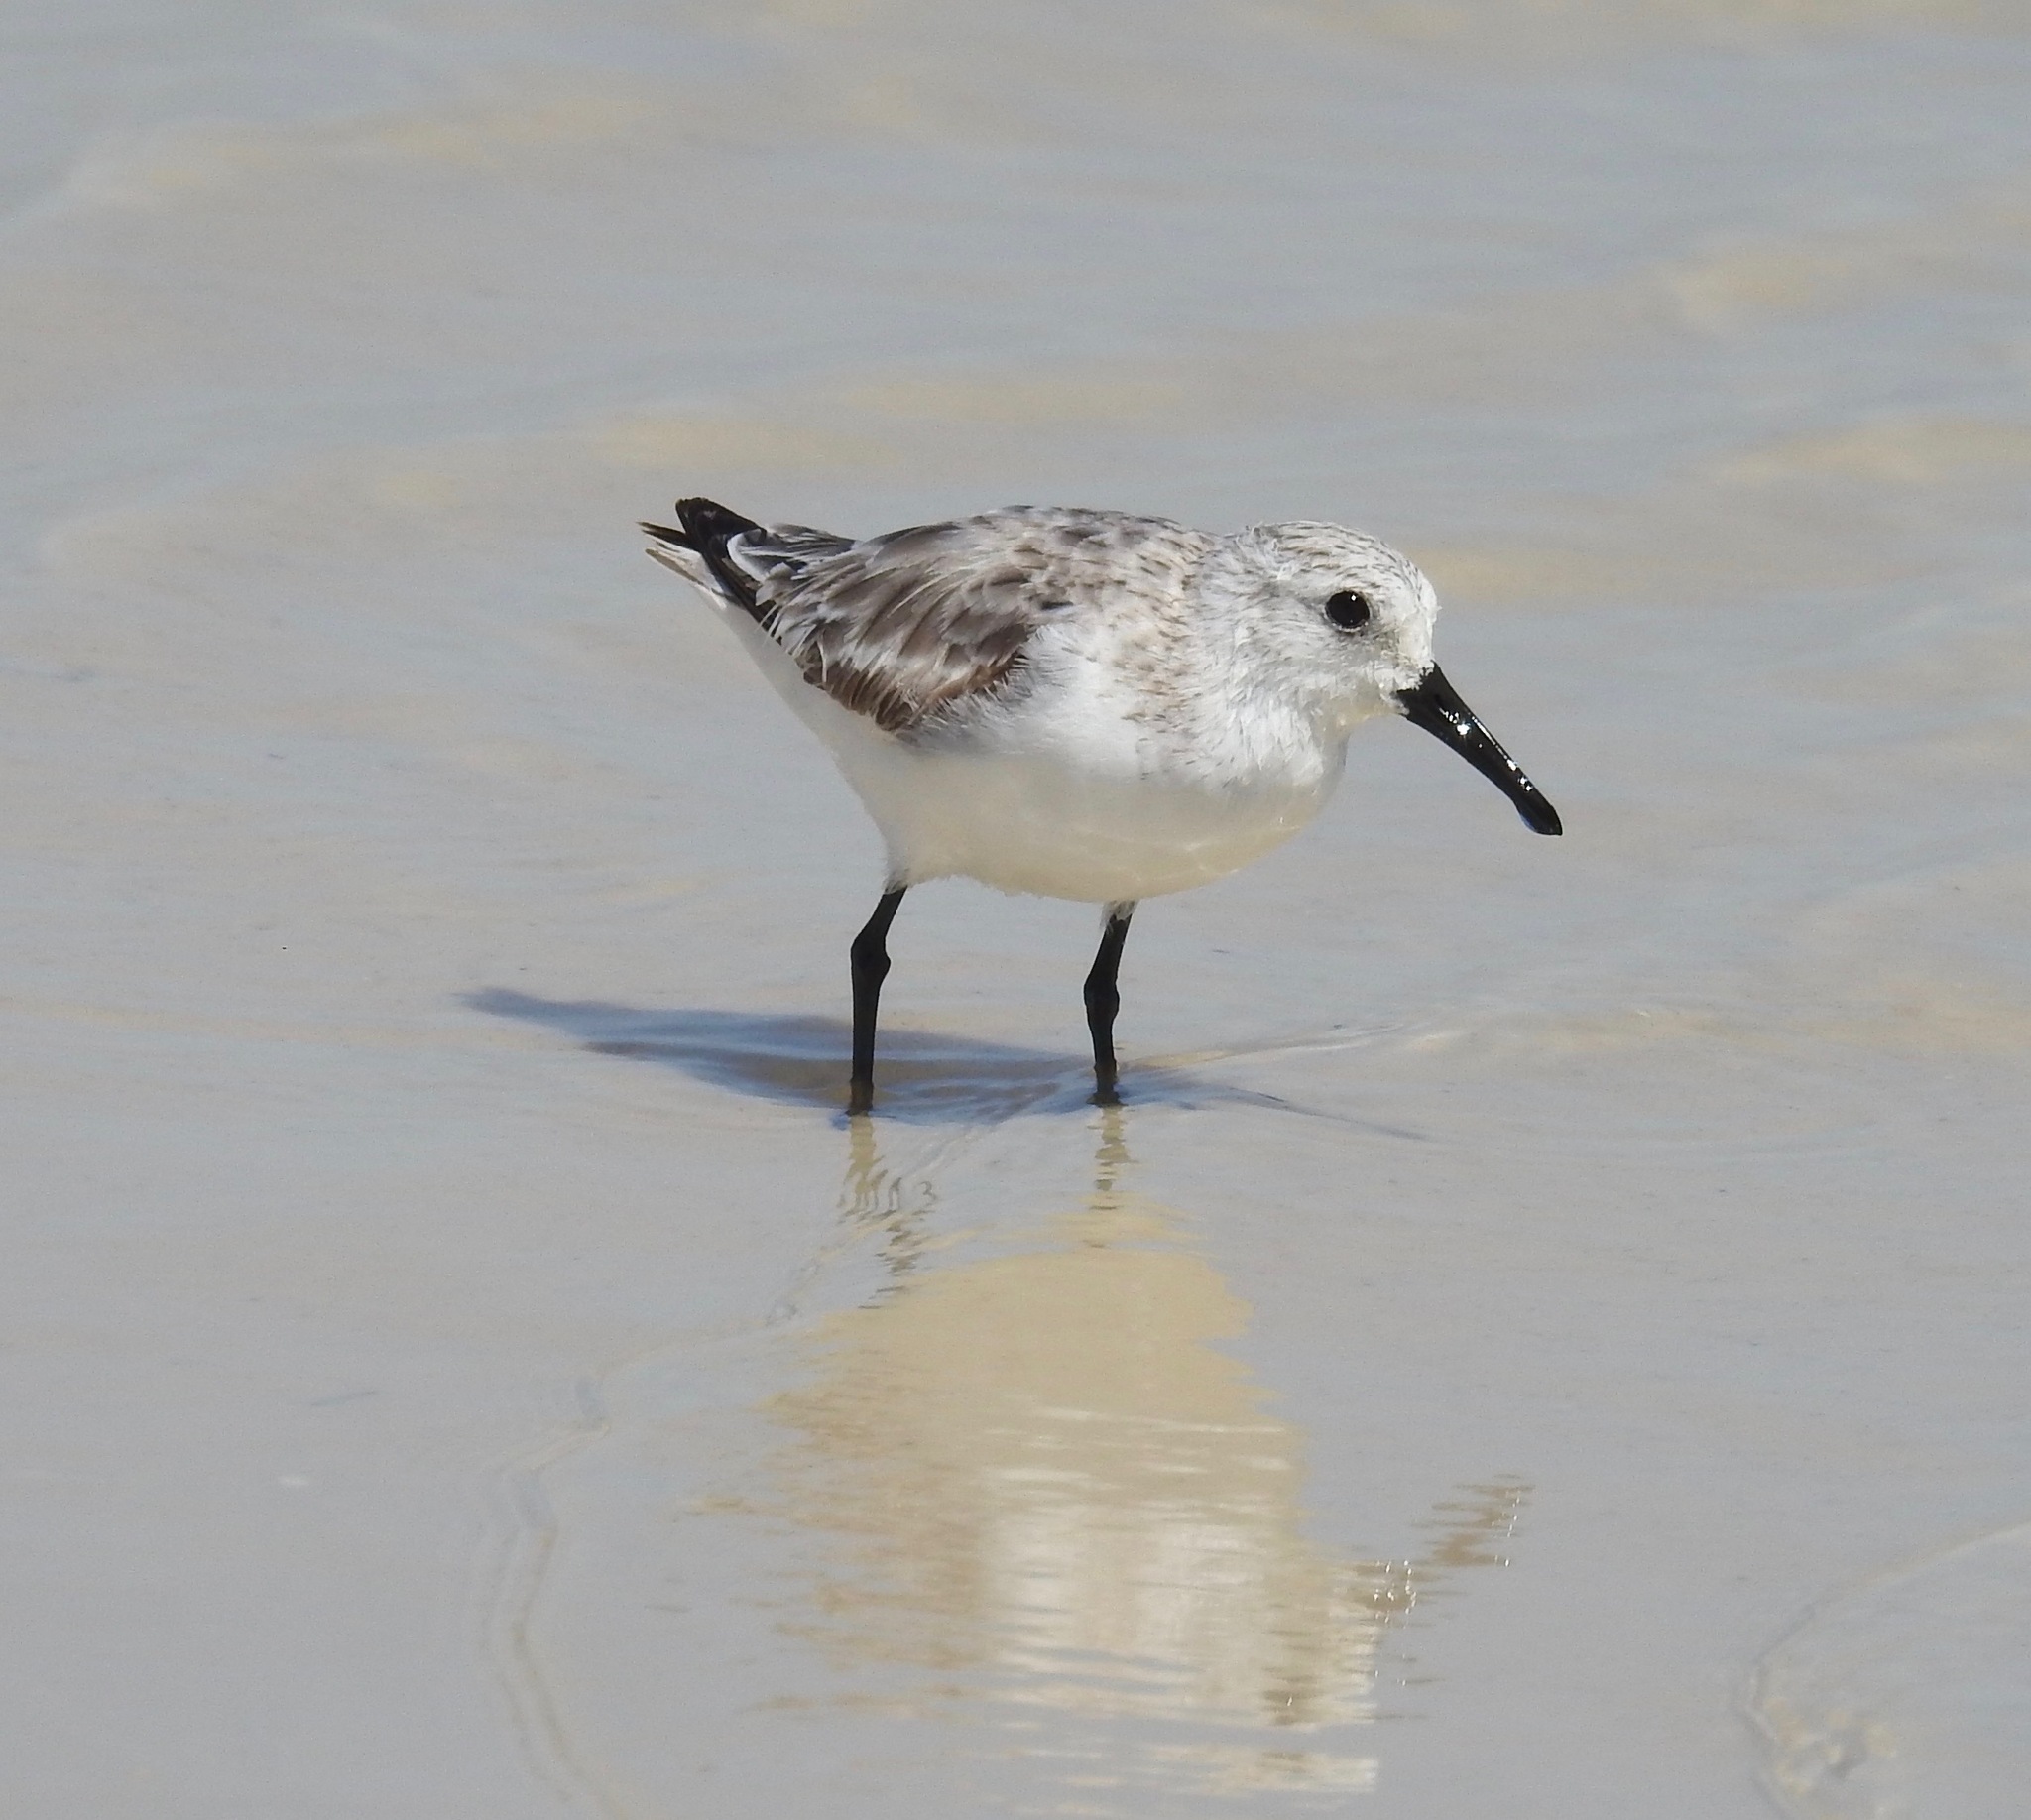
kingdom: Animalia
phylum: Chordata
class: Aves
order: Charadriiformes
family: Scolopacidae
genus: Calidris
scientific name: Calidris alba
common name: Sanderling
